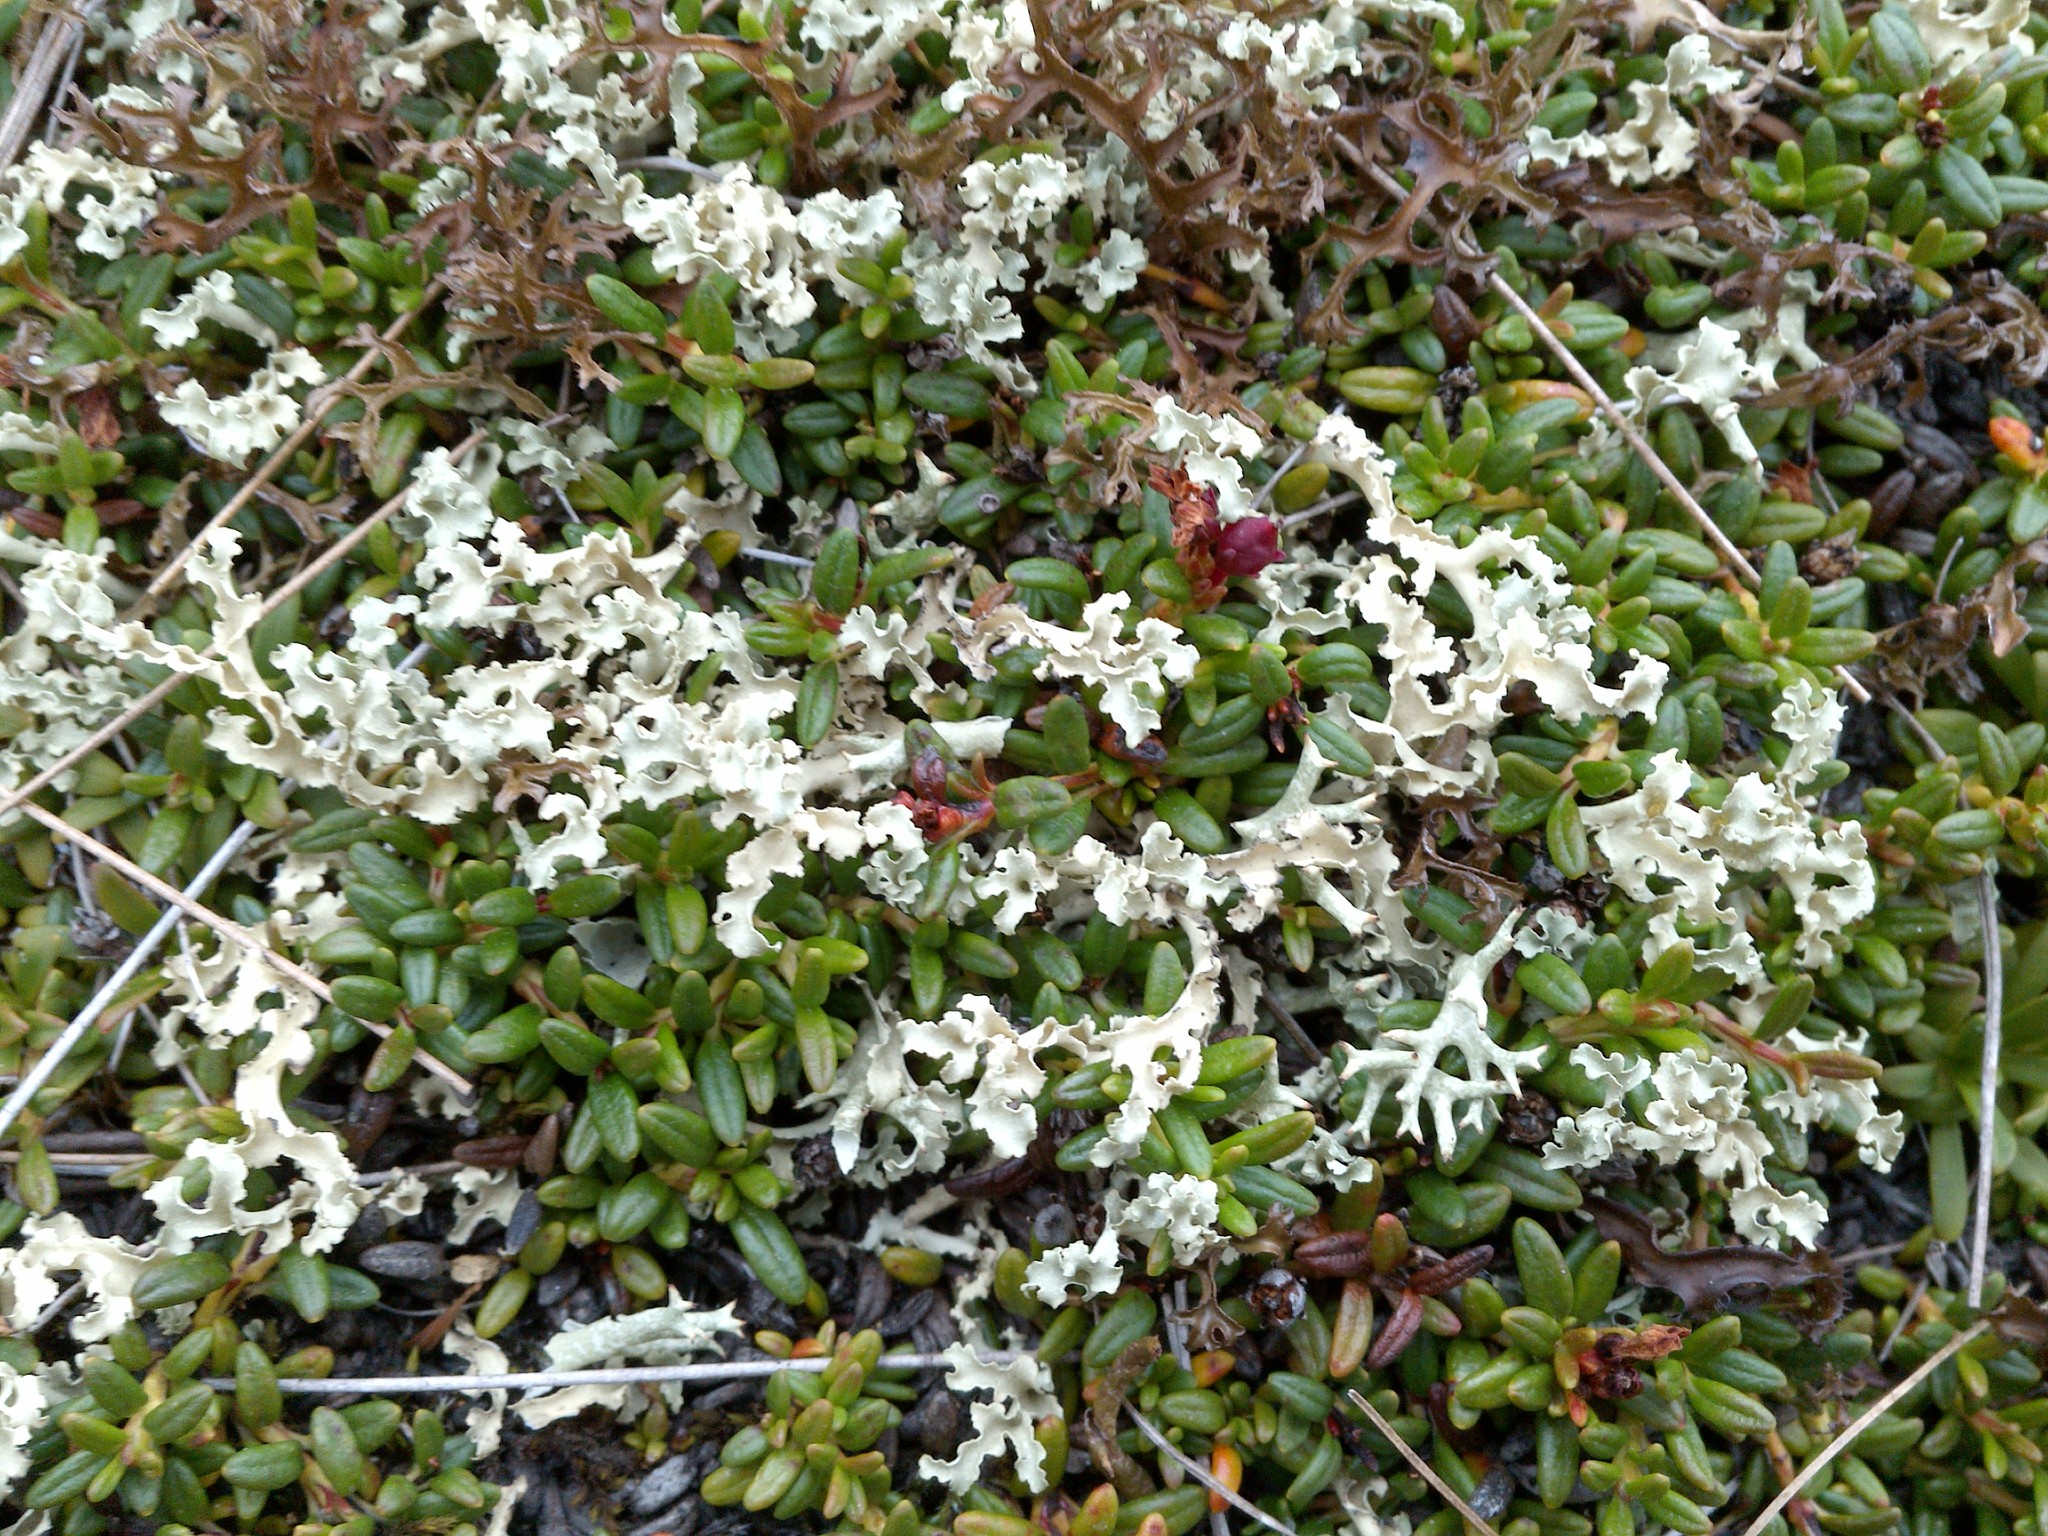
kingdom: Fungi
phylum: Ascomycota
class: Lecanoromycetes
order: Lecanorales
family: Parmeliaceae
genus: Nephromopsis
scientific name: Nephromopsis cucullata
